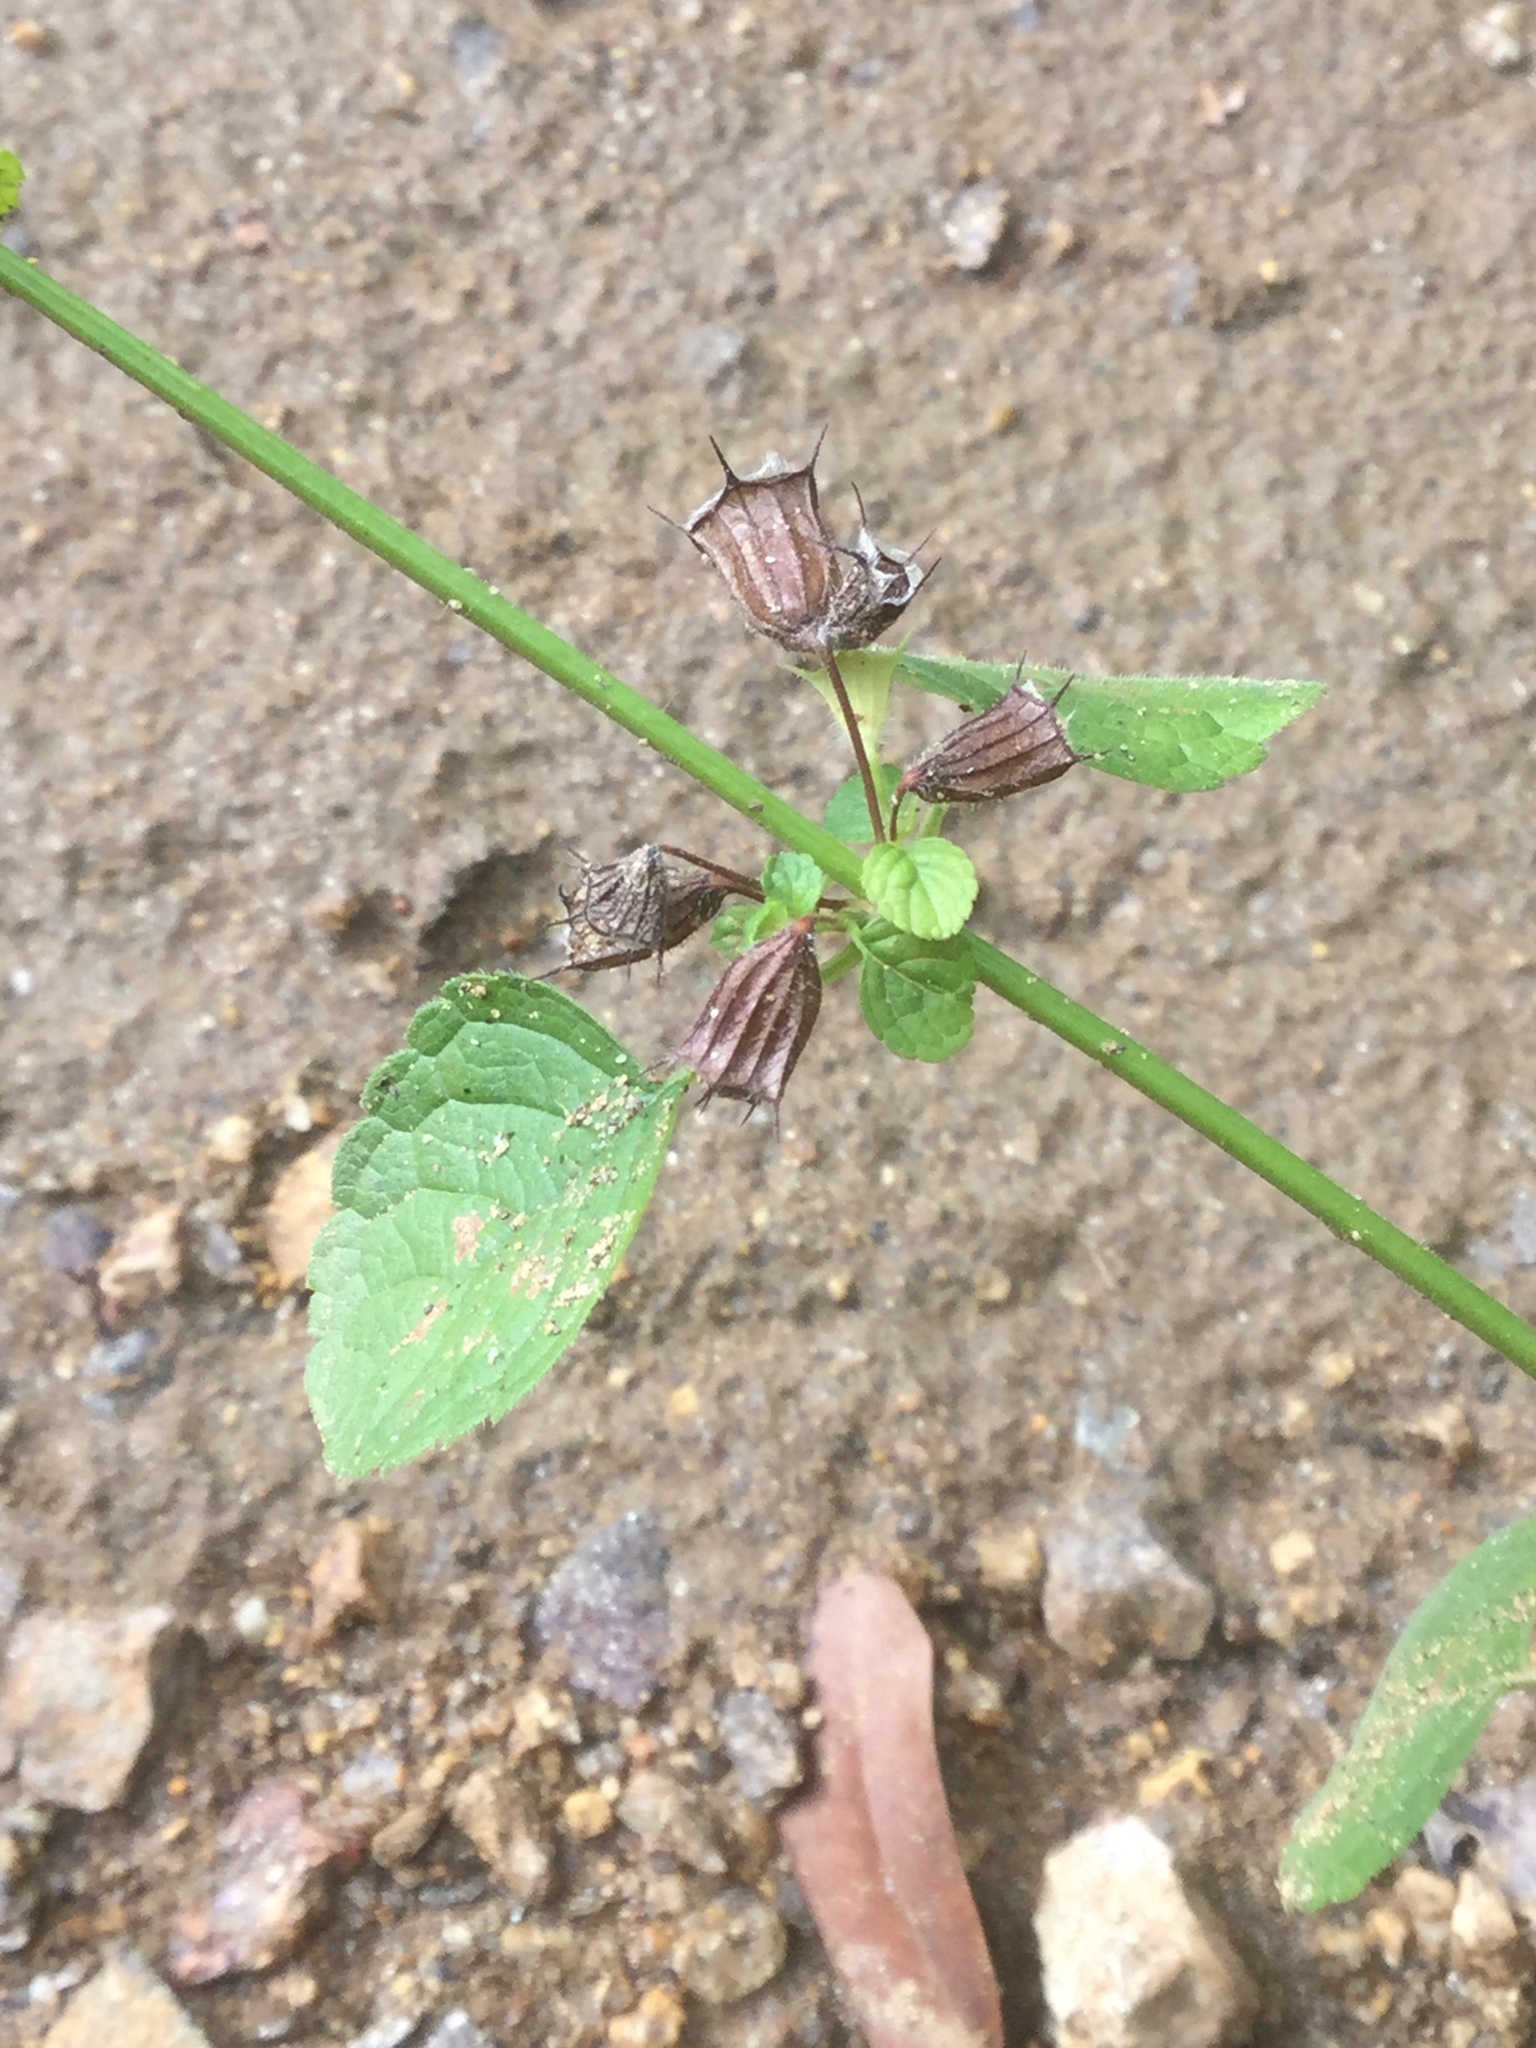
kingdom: Plantae
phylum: Tracheophyta
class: Magnoliopsida
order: Lamiales
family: Lamiaceae
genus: Mesosphaerum
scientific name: Mesosphaerum suaveolens
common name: Pignut
